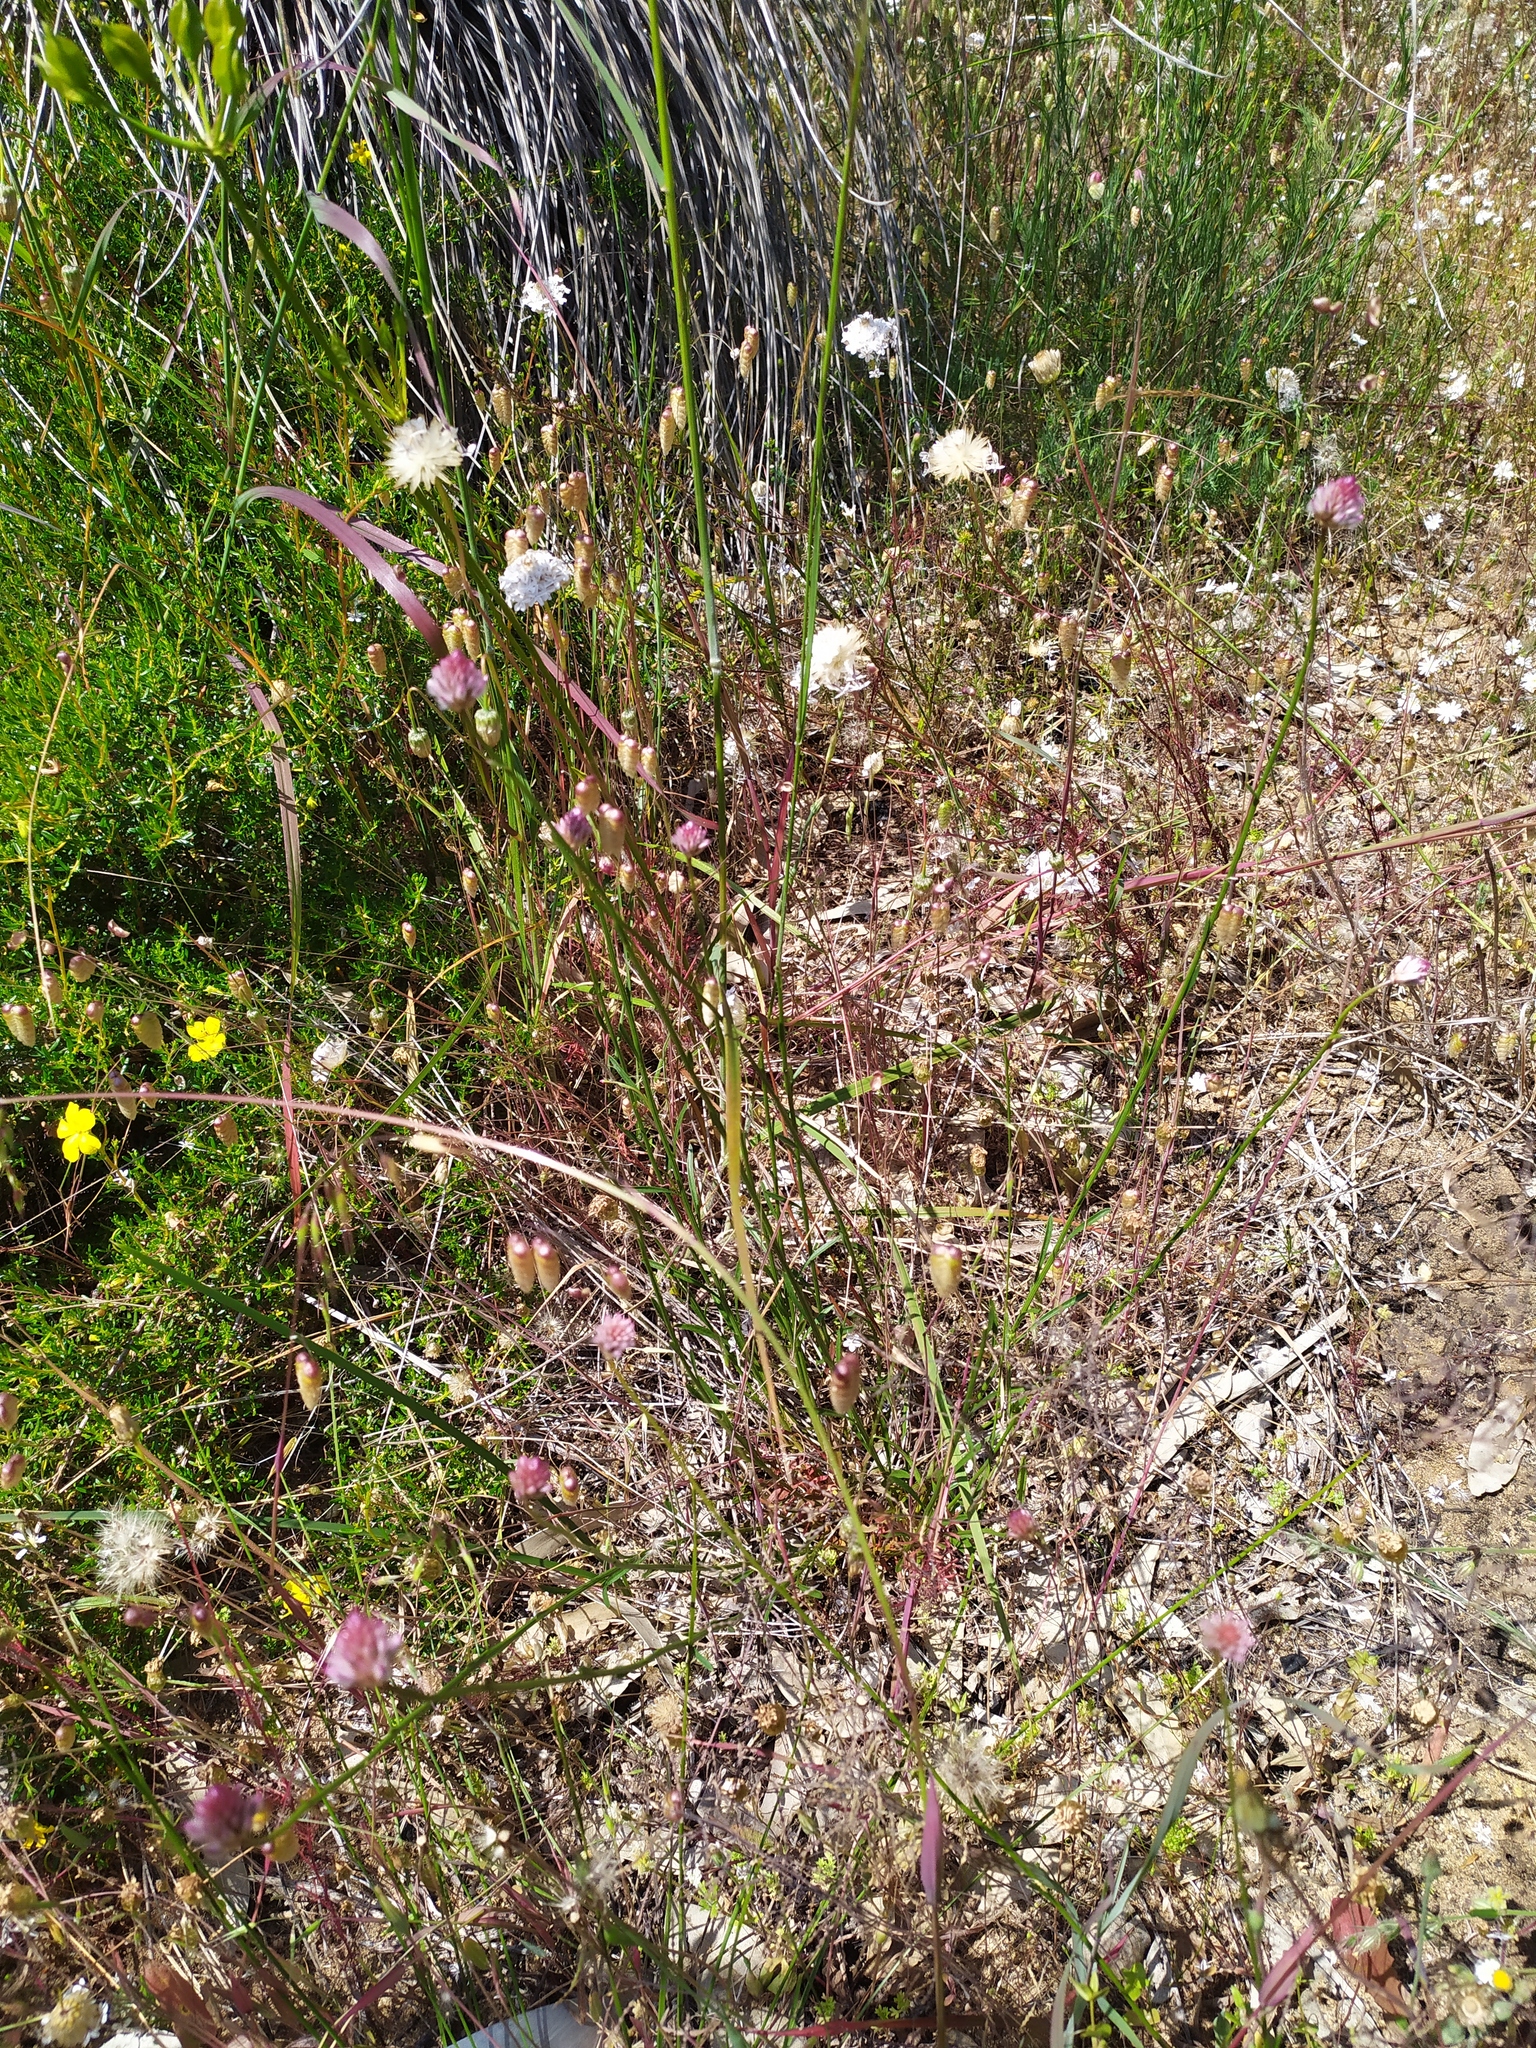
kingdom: Plantae
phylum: Tracheophyta
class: Magnoliopsida
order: Caryophyllales
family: Amaranthaceae
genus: Ptilotus
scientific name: Ptilotus drummondii
